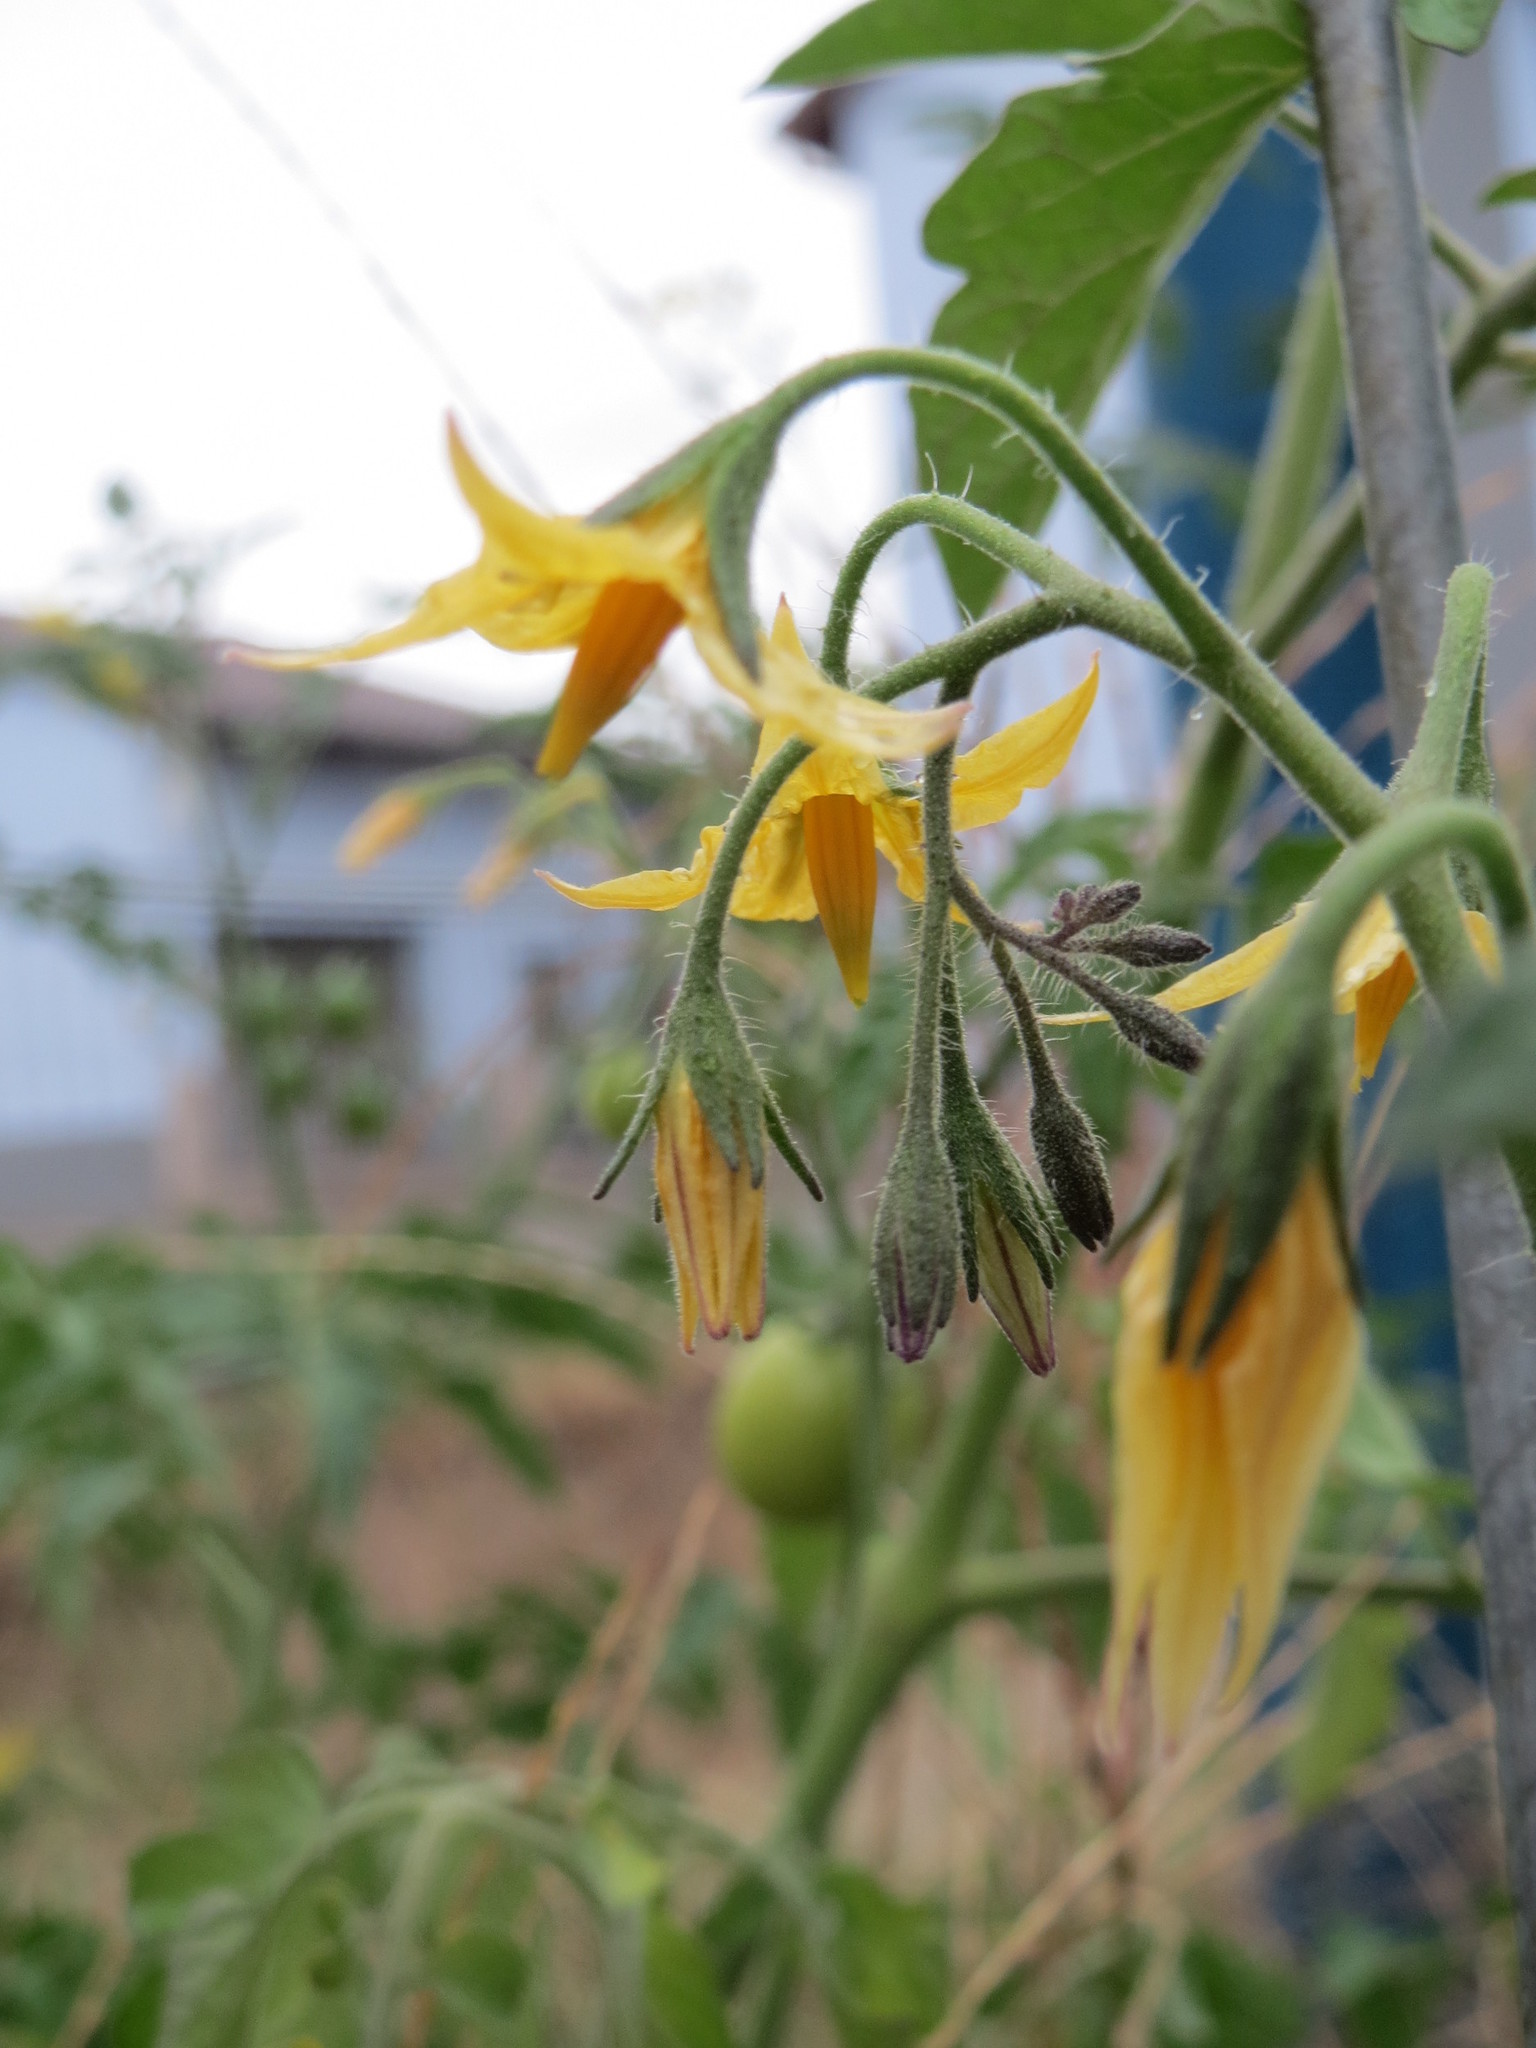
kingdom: Plantae
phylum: Tracheophyta
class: Magnoliopsida
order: Solanales
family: Solanaceae
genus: Solanum
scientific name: Solanum lycopersicum
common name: Garden tomato
